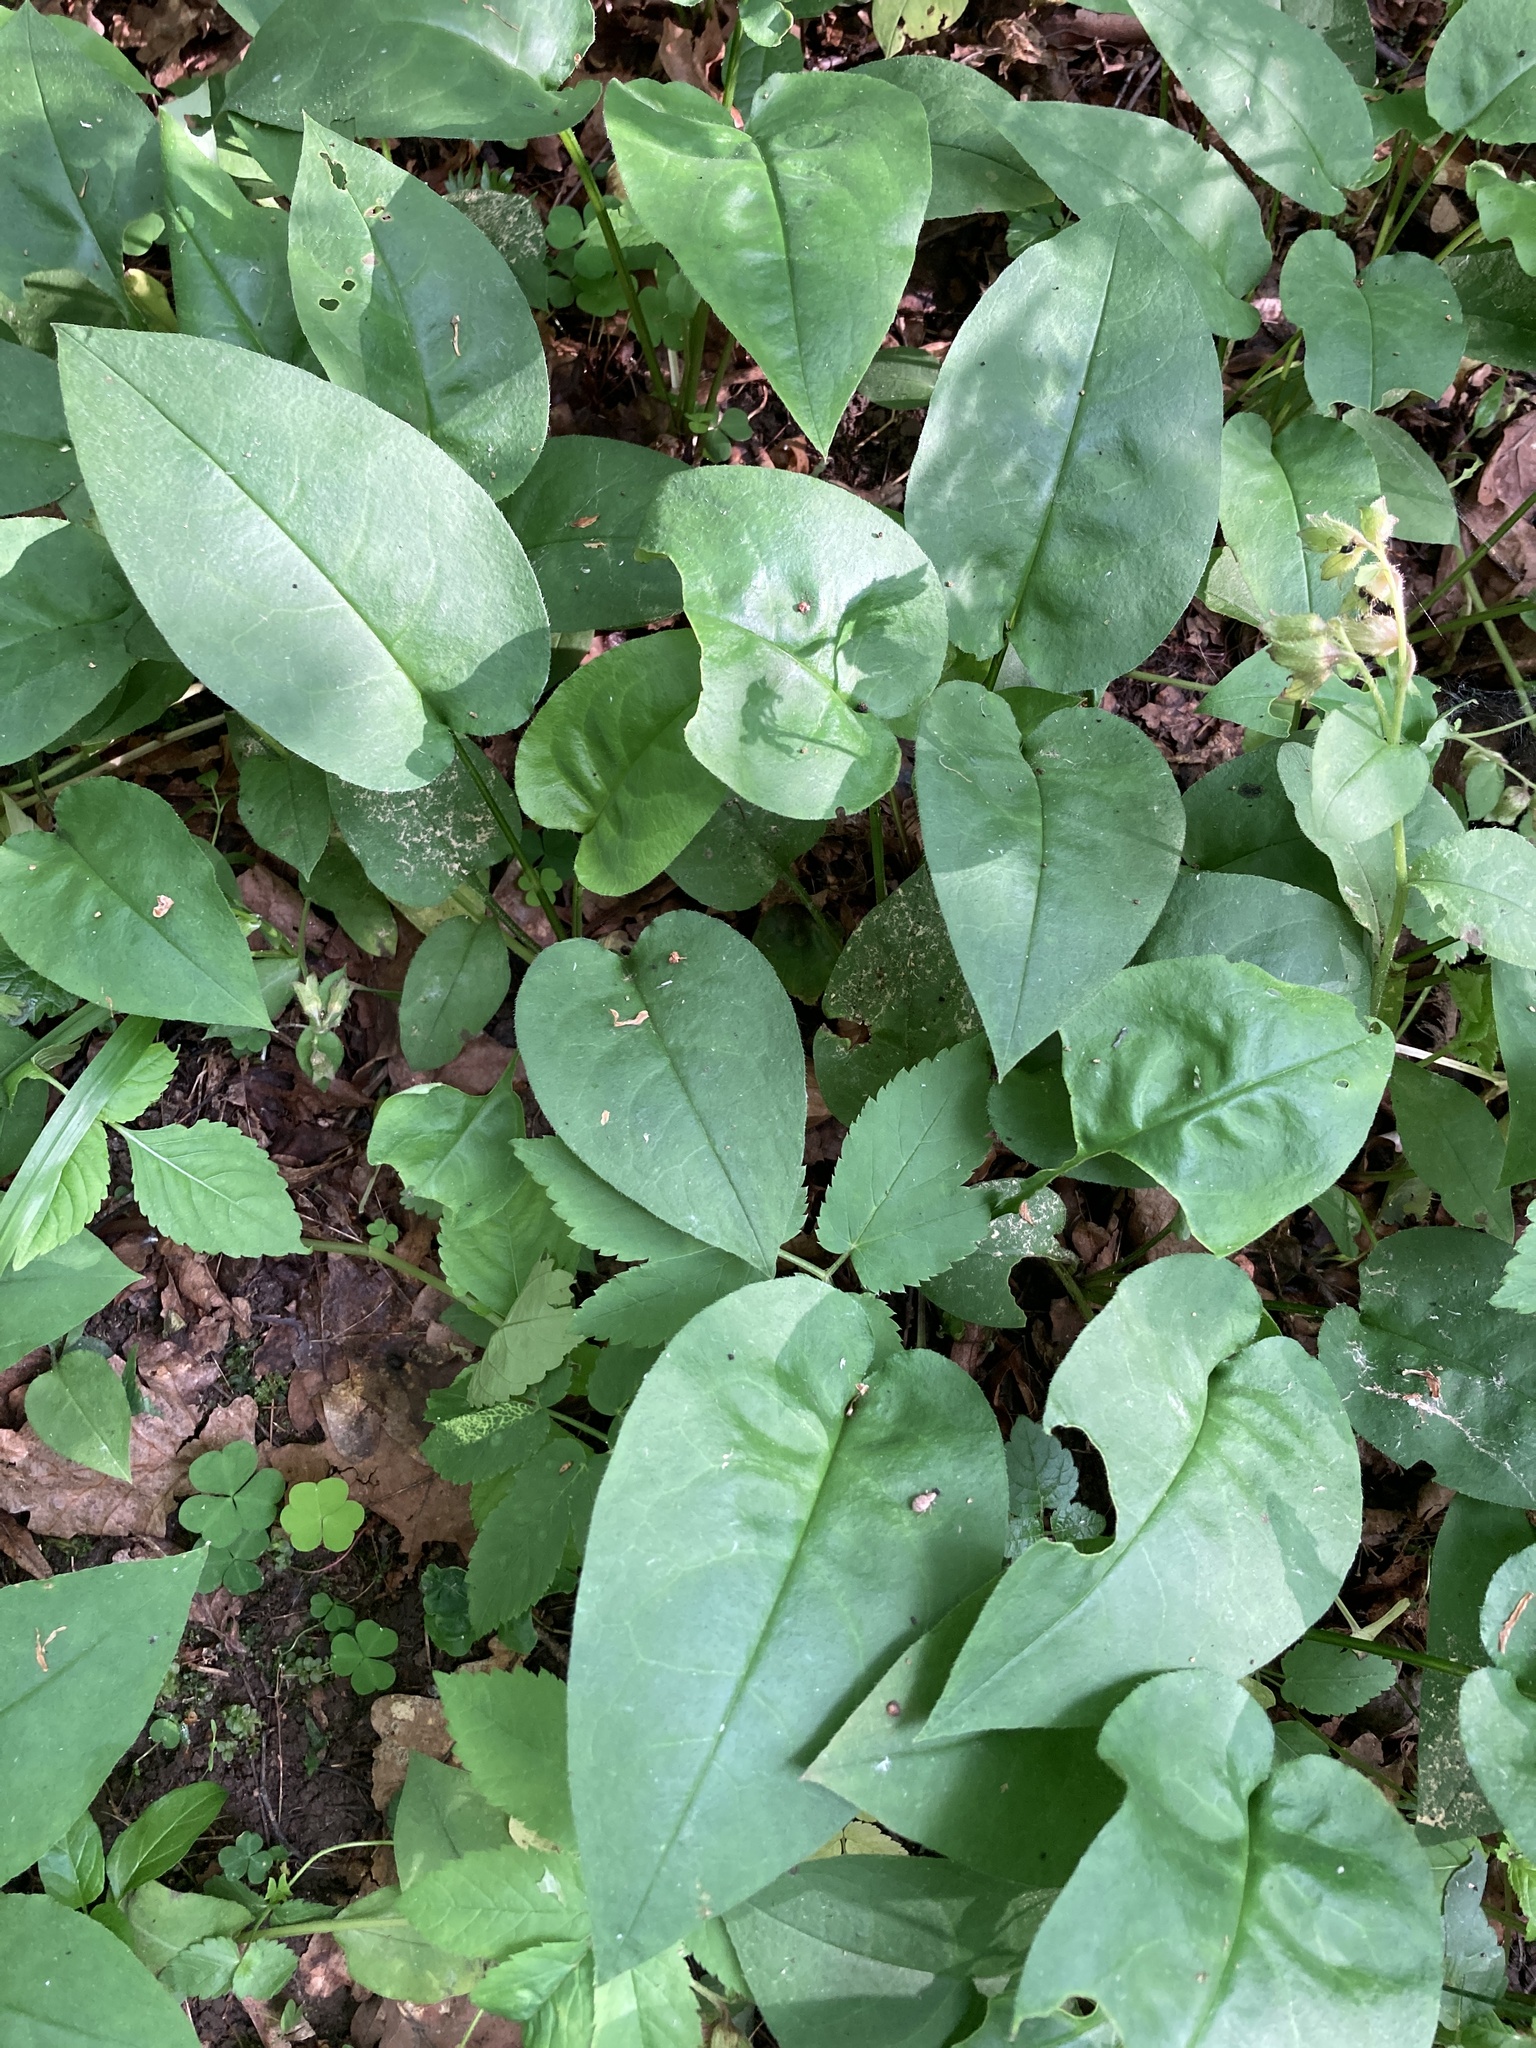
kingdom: Plantae
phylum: Tracheophyta
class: Magnoliopsida
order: Boraginales
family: Boraginaceae
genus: Pulmonaria
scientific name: Pulmonaria obscura
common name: Suffolk lungwort
